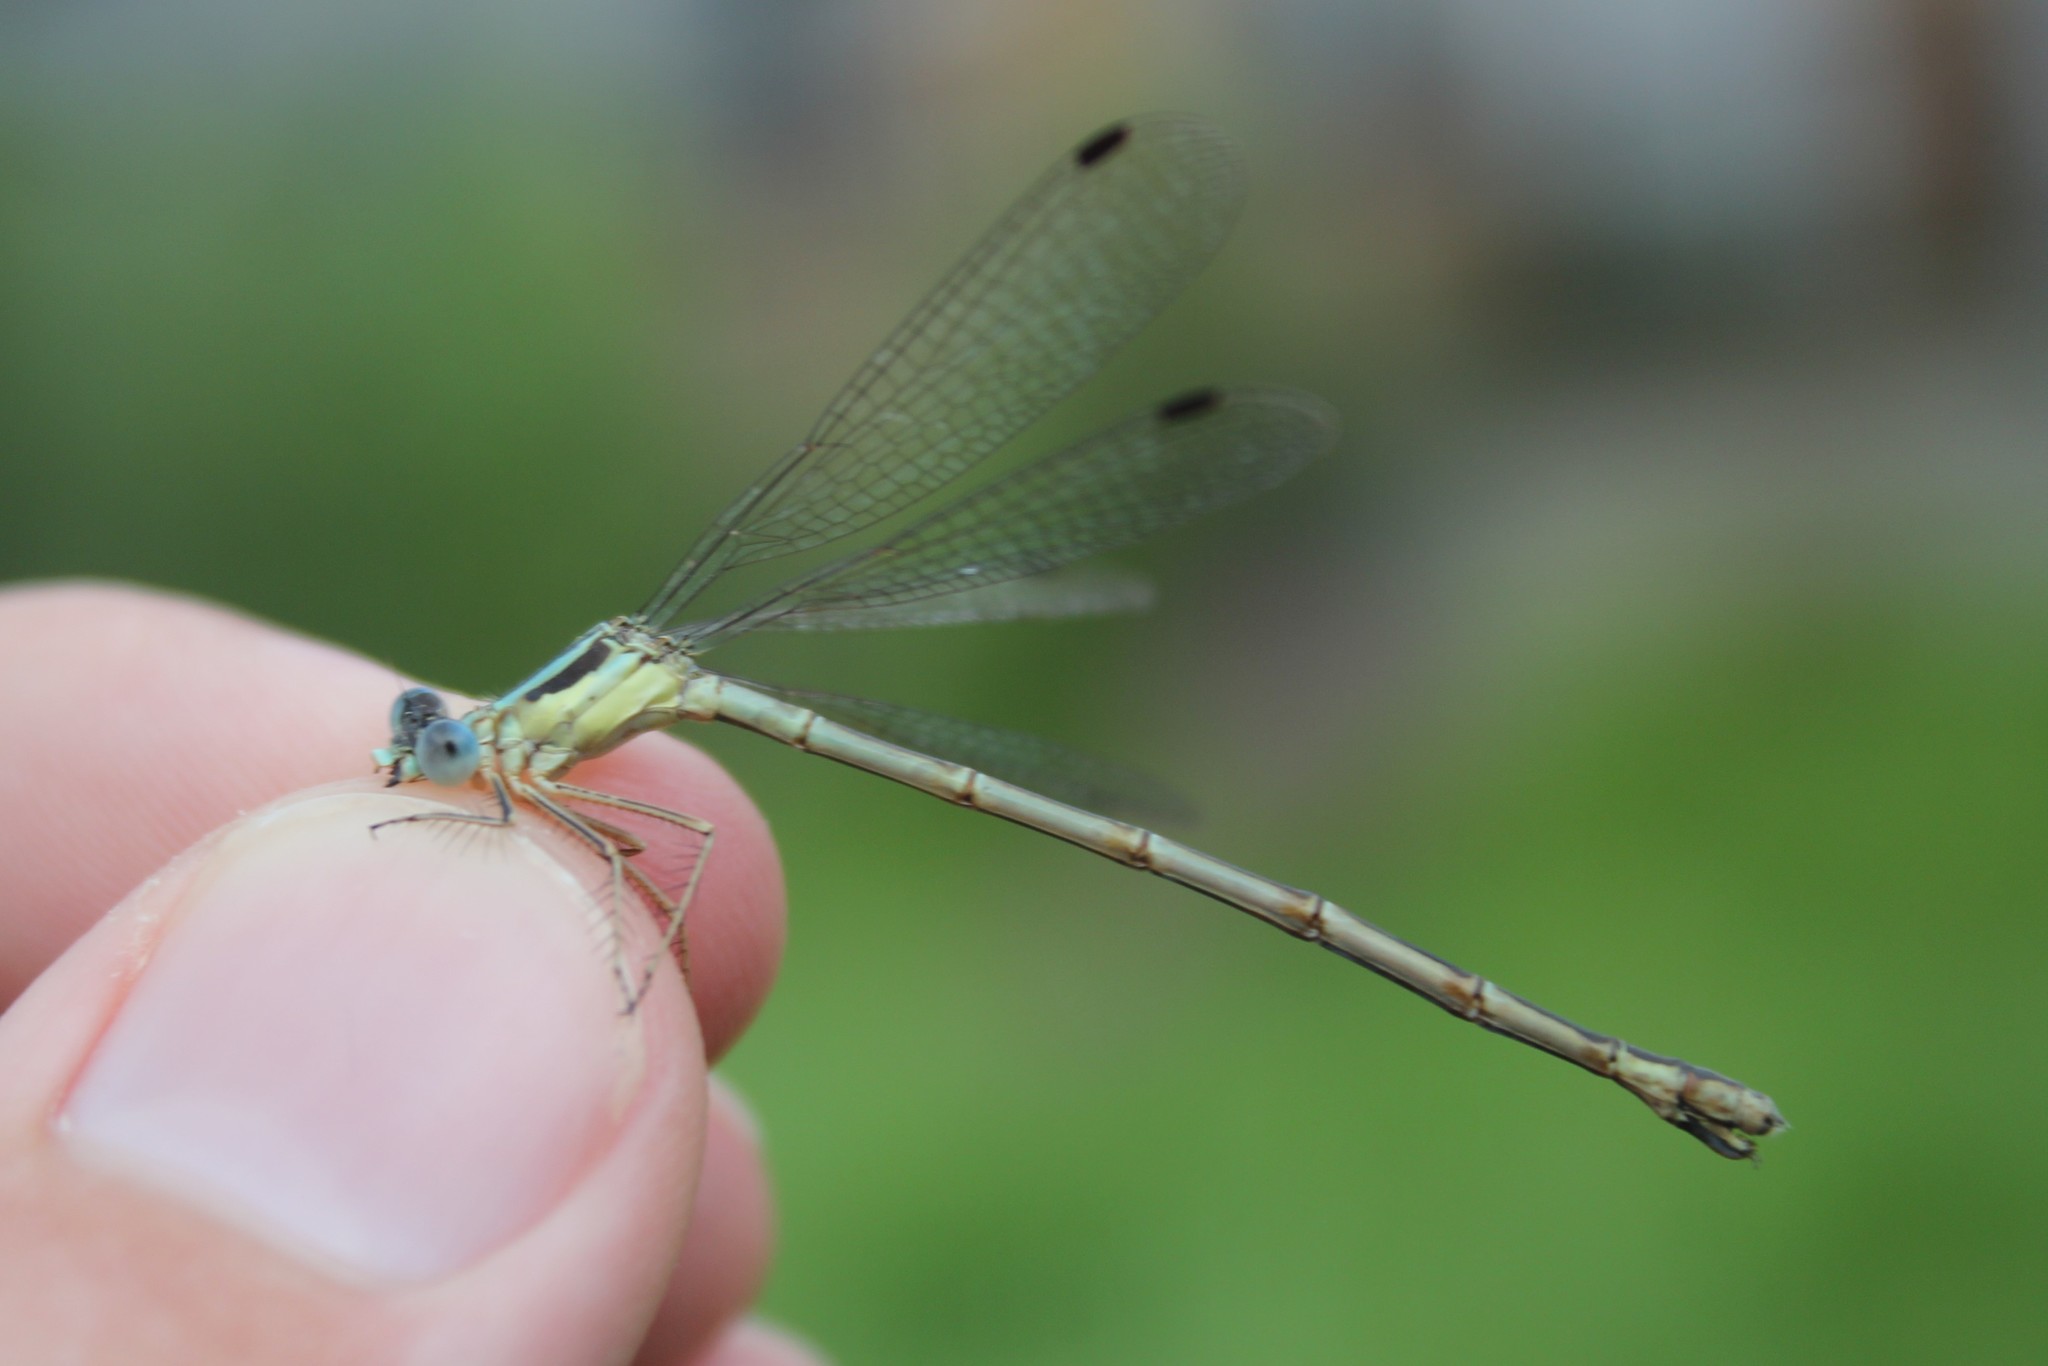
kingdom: Animalia
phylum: Arthropoda
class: Insecta
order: Odonata
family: Lestidae
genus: Lestes
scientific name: Lestes rectangularis
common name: Slender spreadwing
